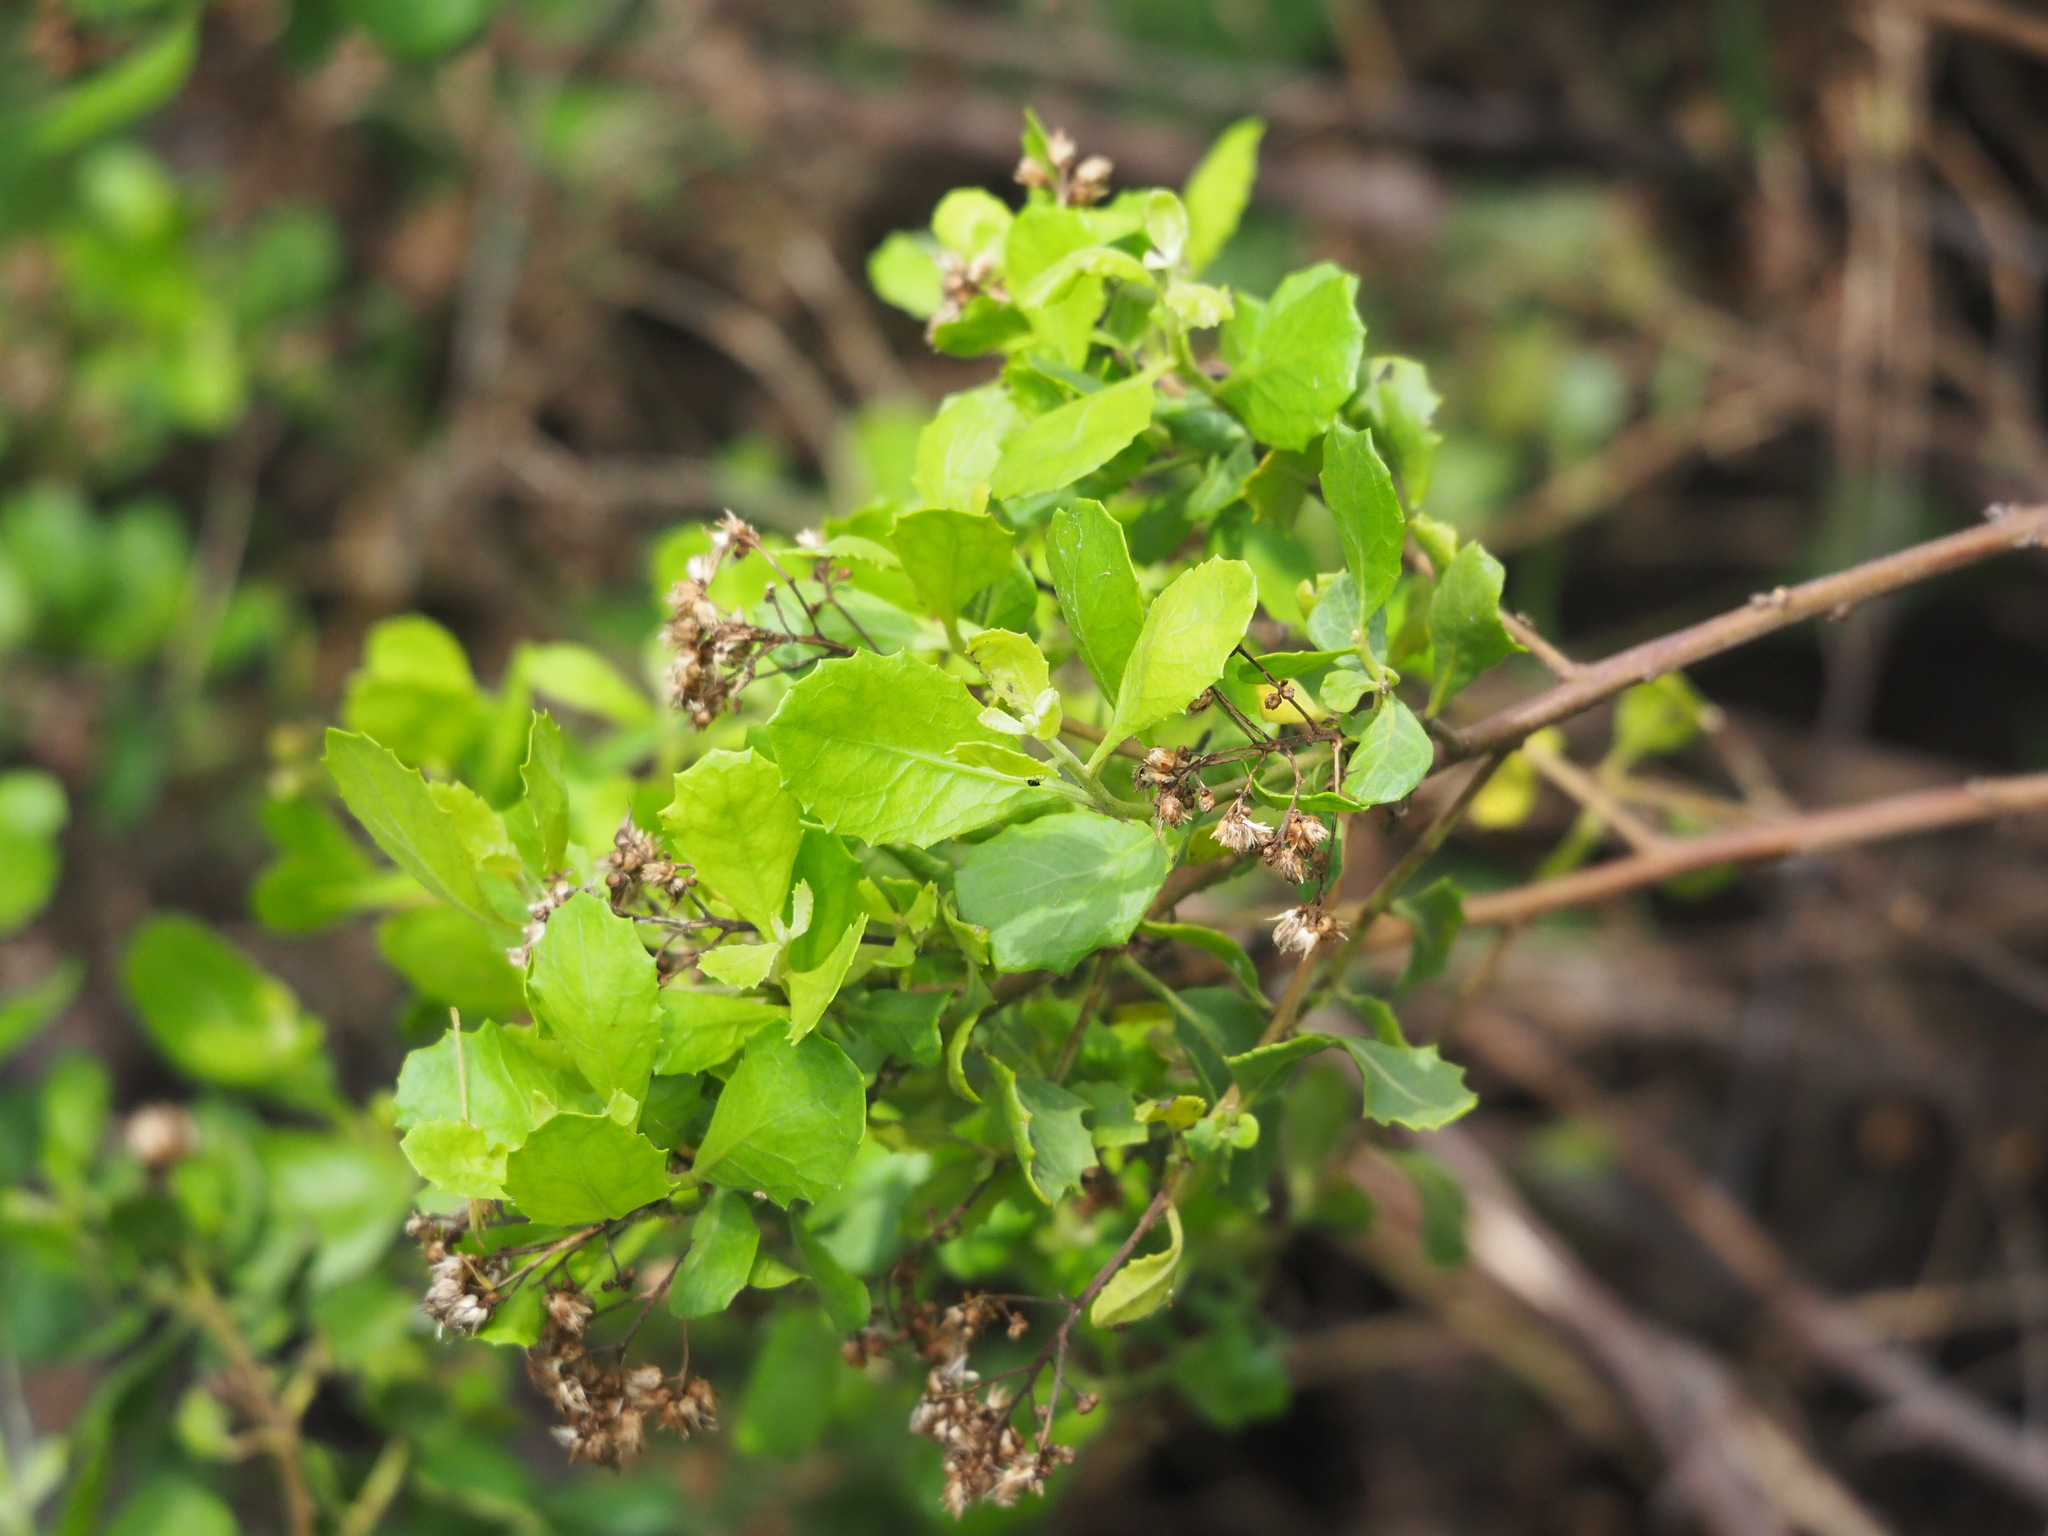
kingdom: Plantae
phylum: Tracheophyta
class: Magnoliopsida
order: Asterales
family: Asteraceae
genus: Pluchea
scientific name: Pluchea indica
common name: Indian fleabane
